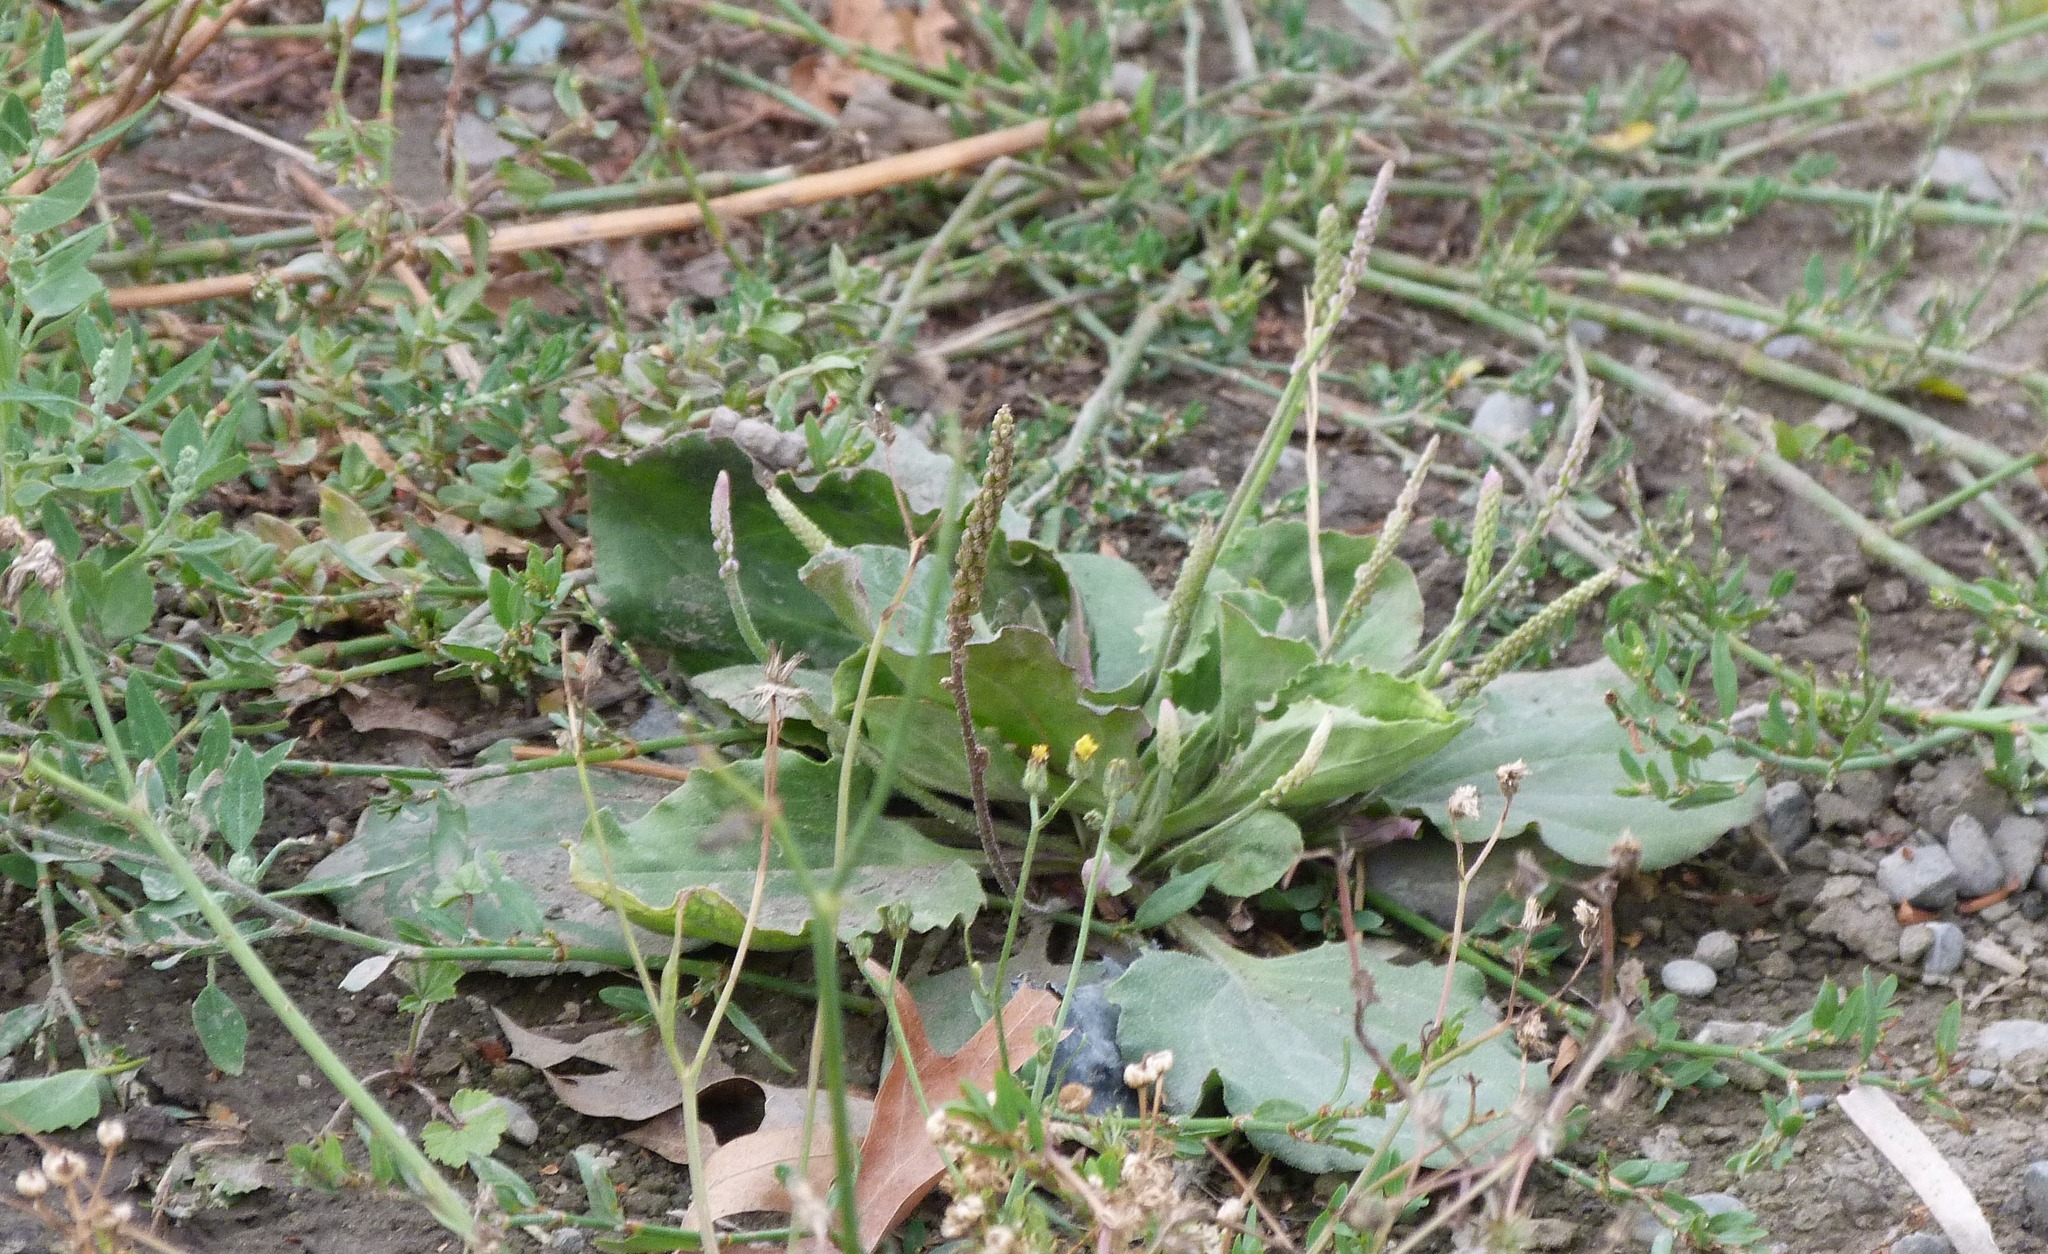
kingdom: Plantae
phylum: Tracheophyta
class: Magnoliopsida
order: Lamiales
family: Plantaginaceae
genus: Plantago
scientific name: Plantago major
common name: Common plantain
